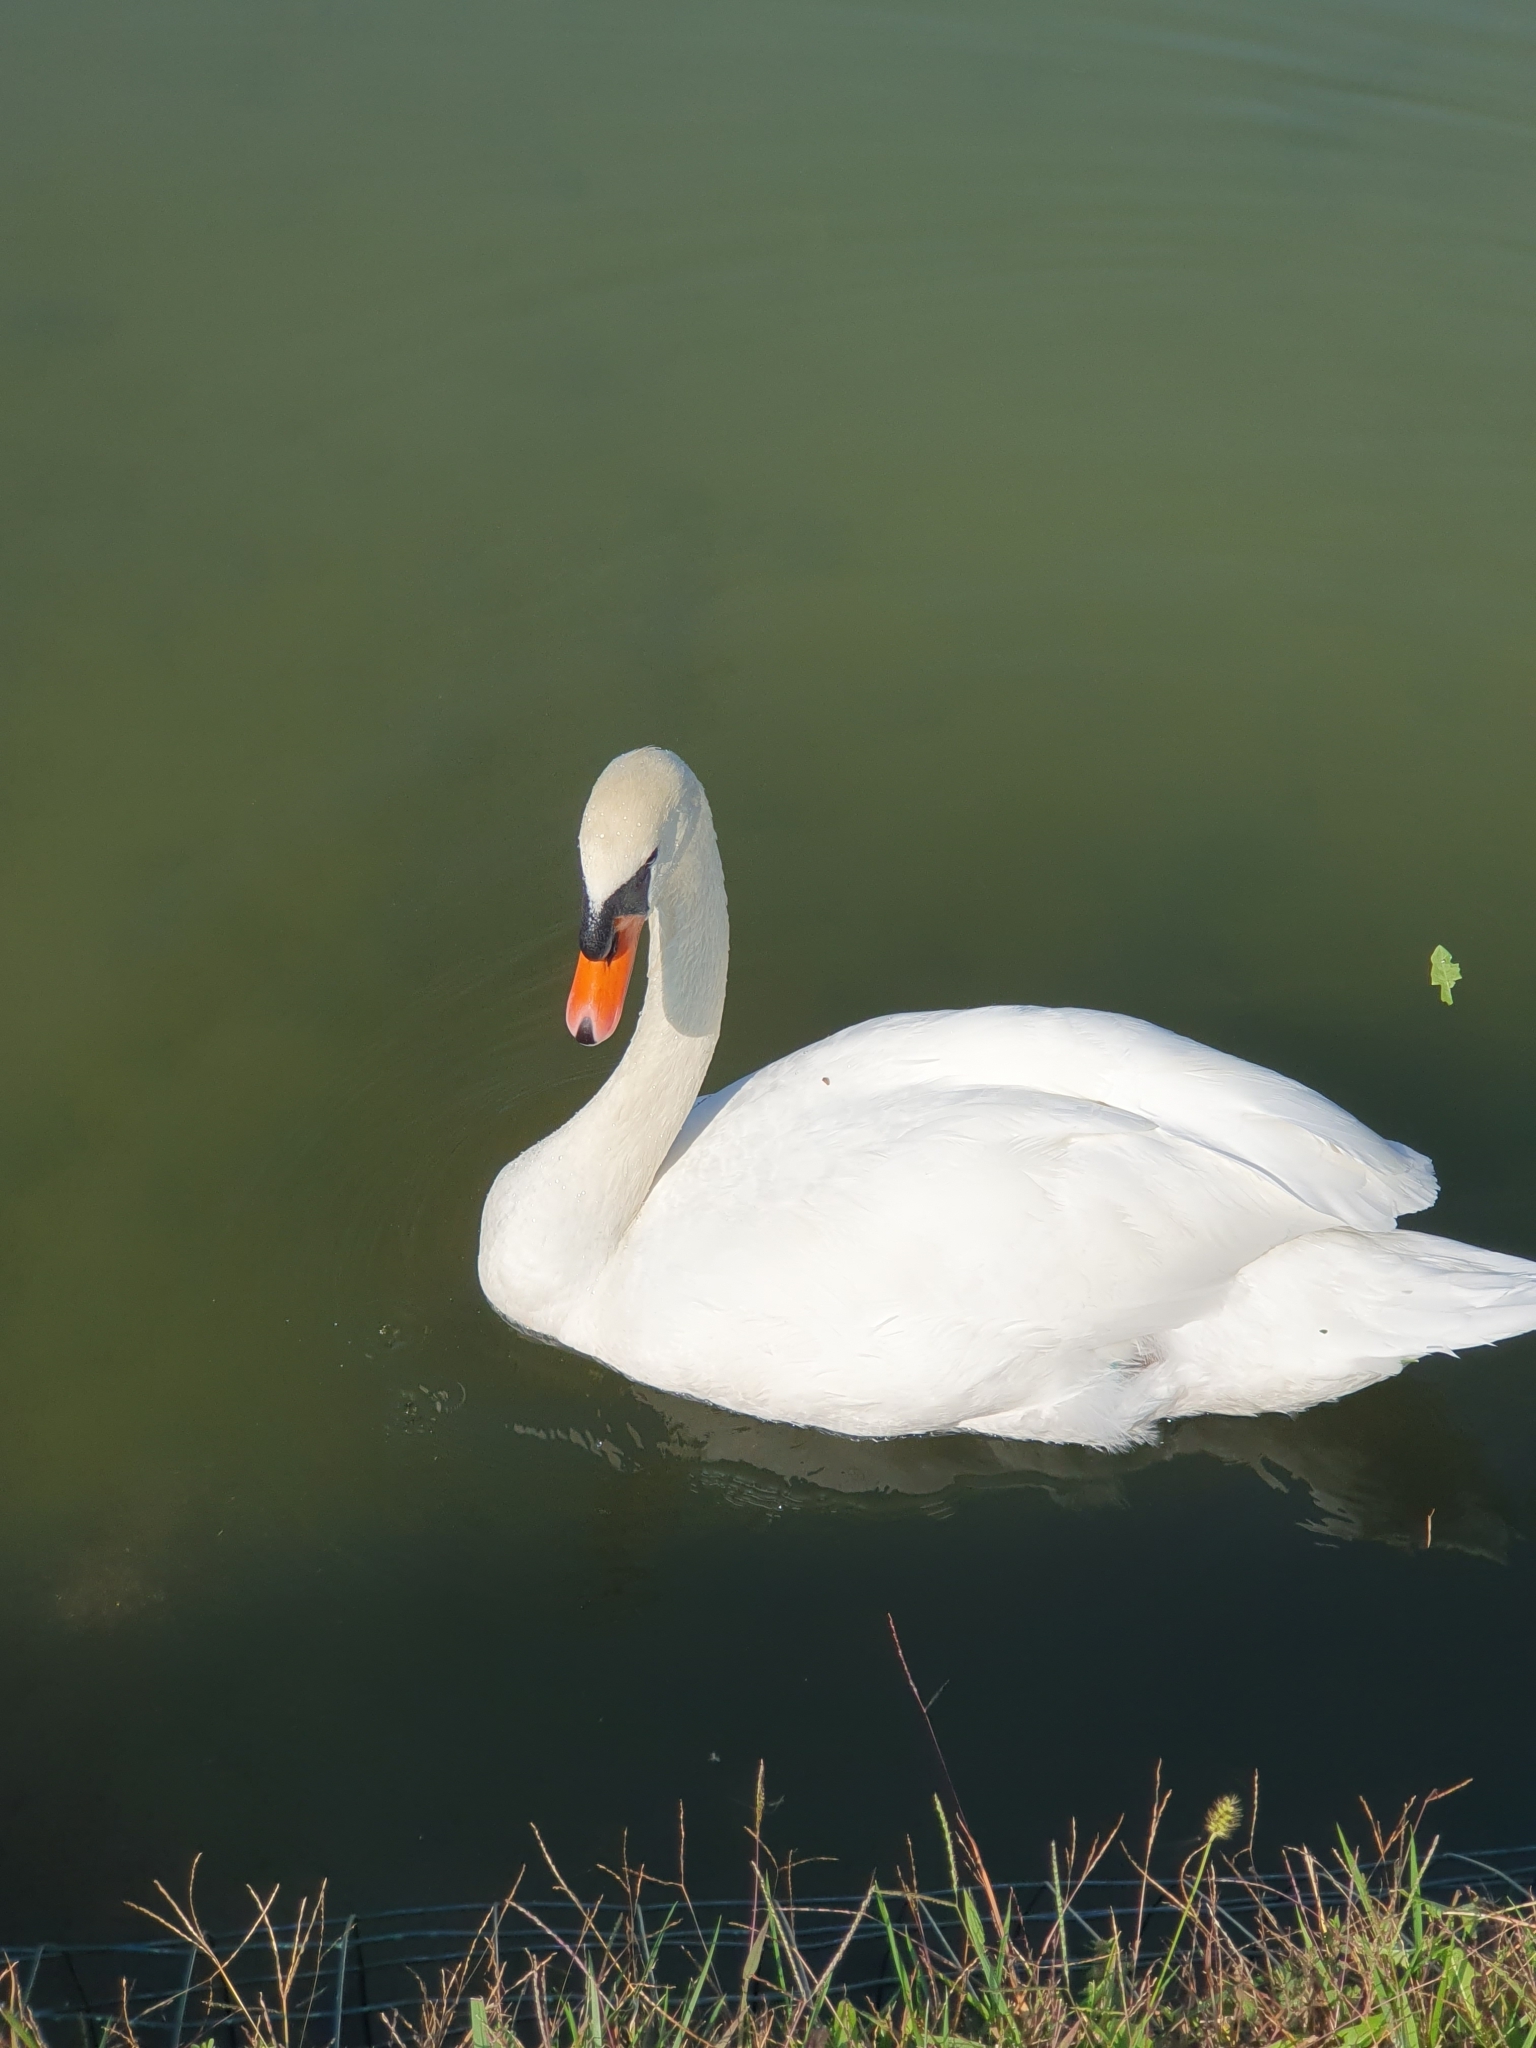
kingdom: Animalia
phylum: Chordata
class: Aves
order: Anseriformes
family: Anatidae
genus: Cygnus
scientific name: Cygnus olor
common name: Mute swan
